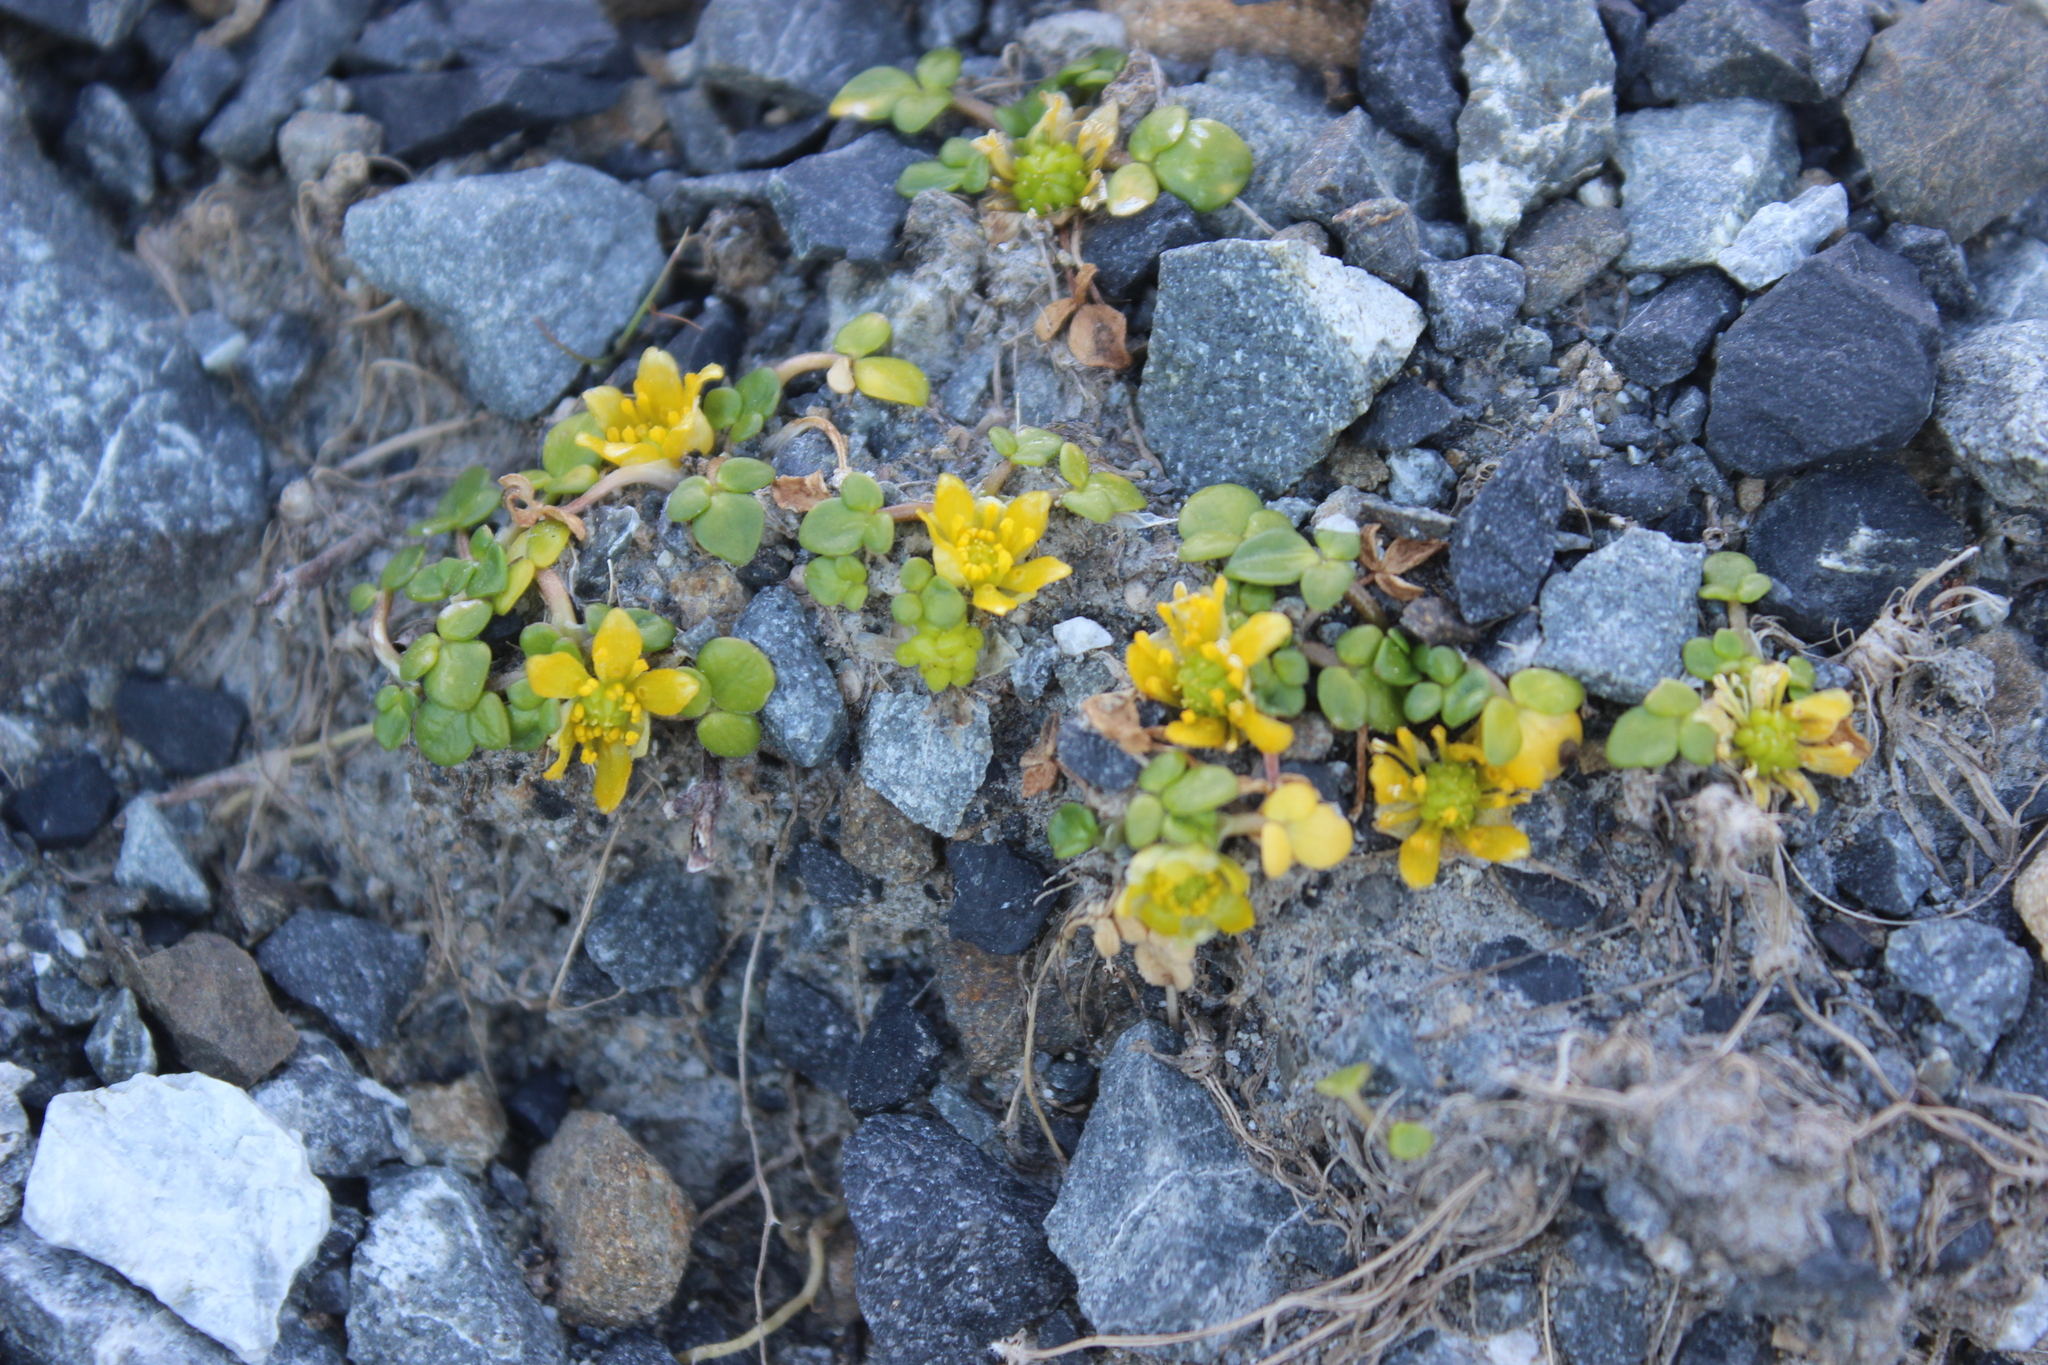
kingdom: Plantae
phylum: Tracheophyta
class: Magnoliopsida
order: Ranunculales
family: Ranunculaceae
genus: Ranunculus
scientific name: Ranunculus acaulis
